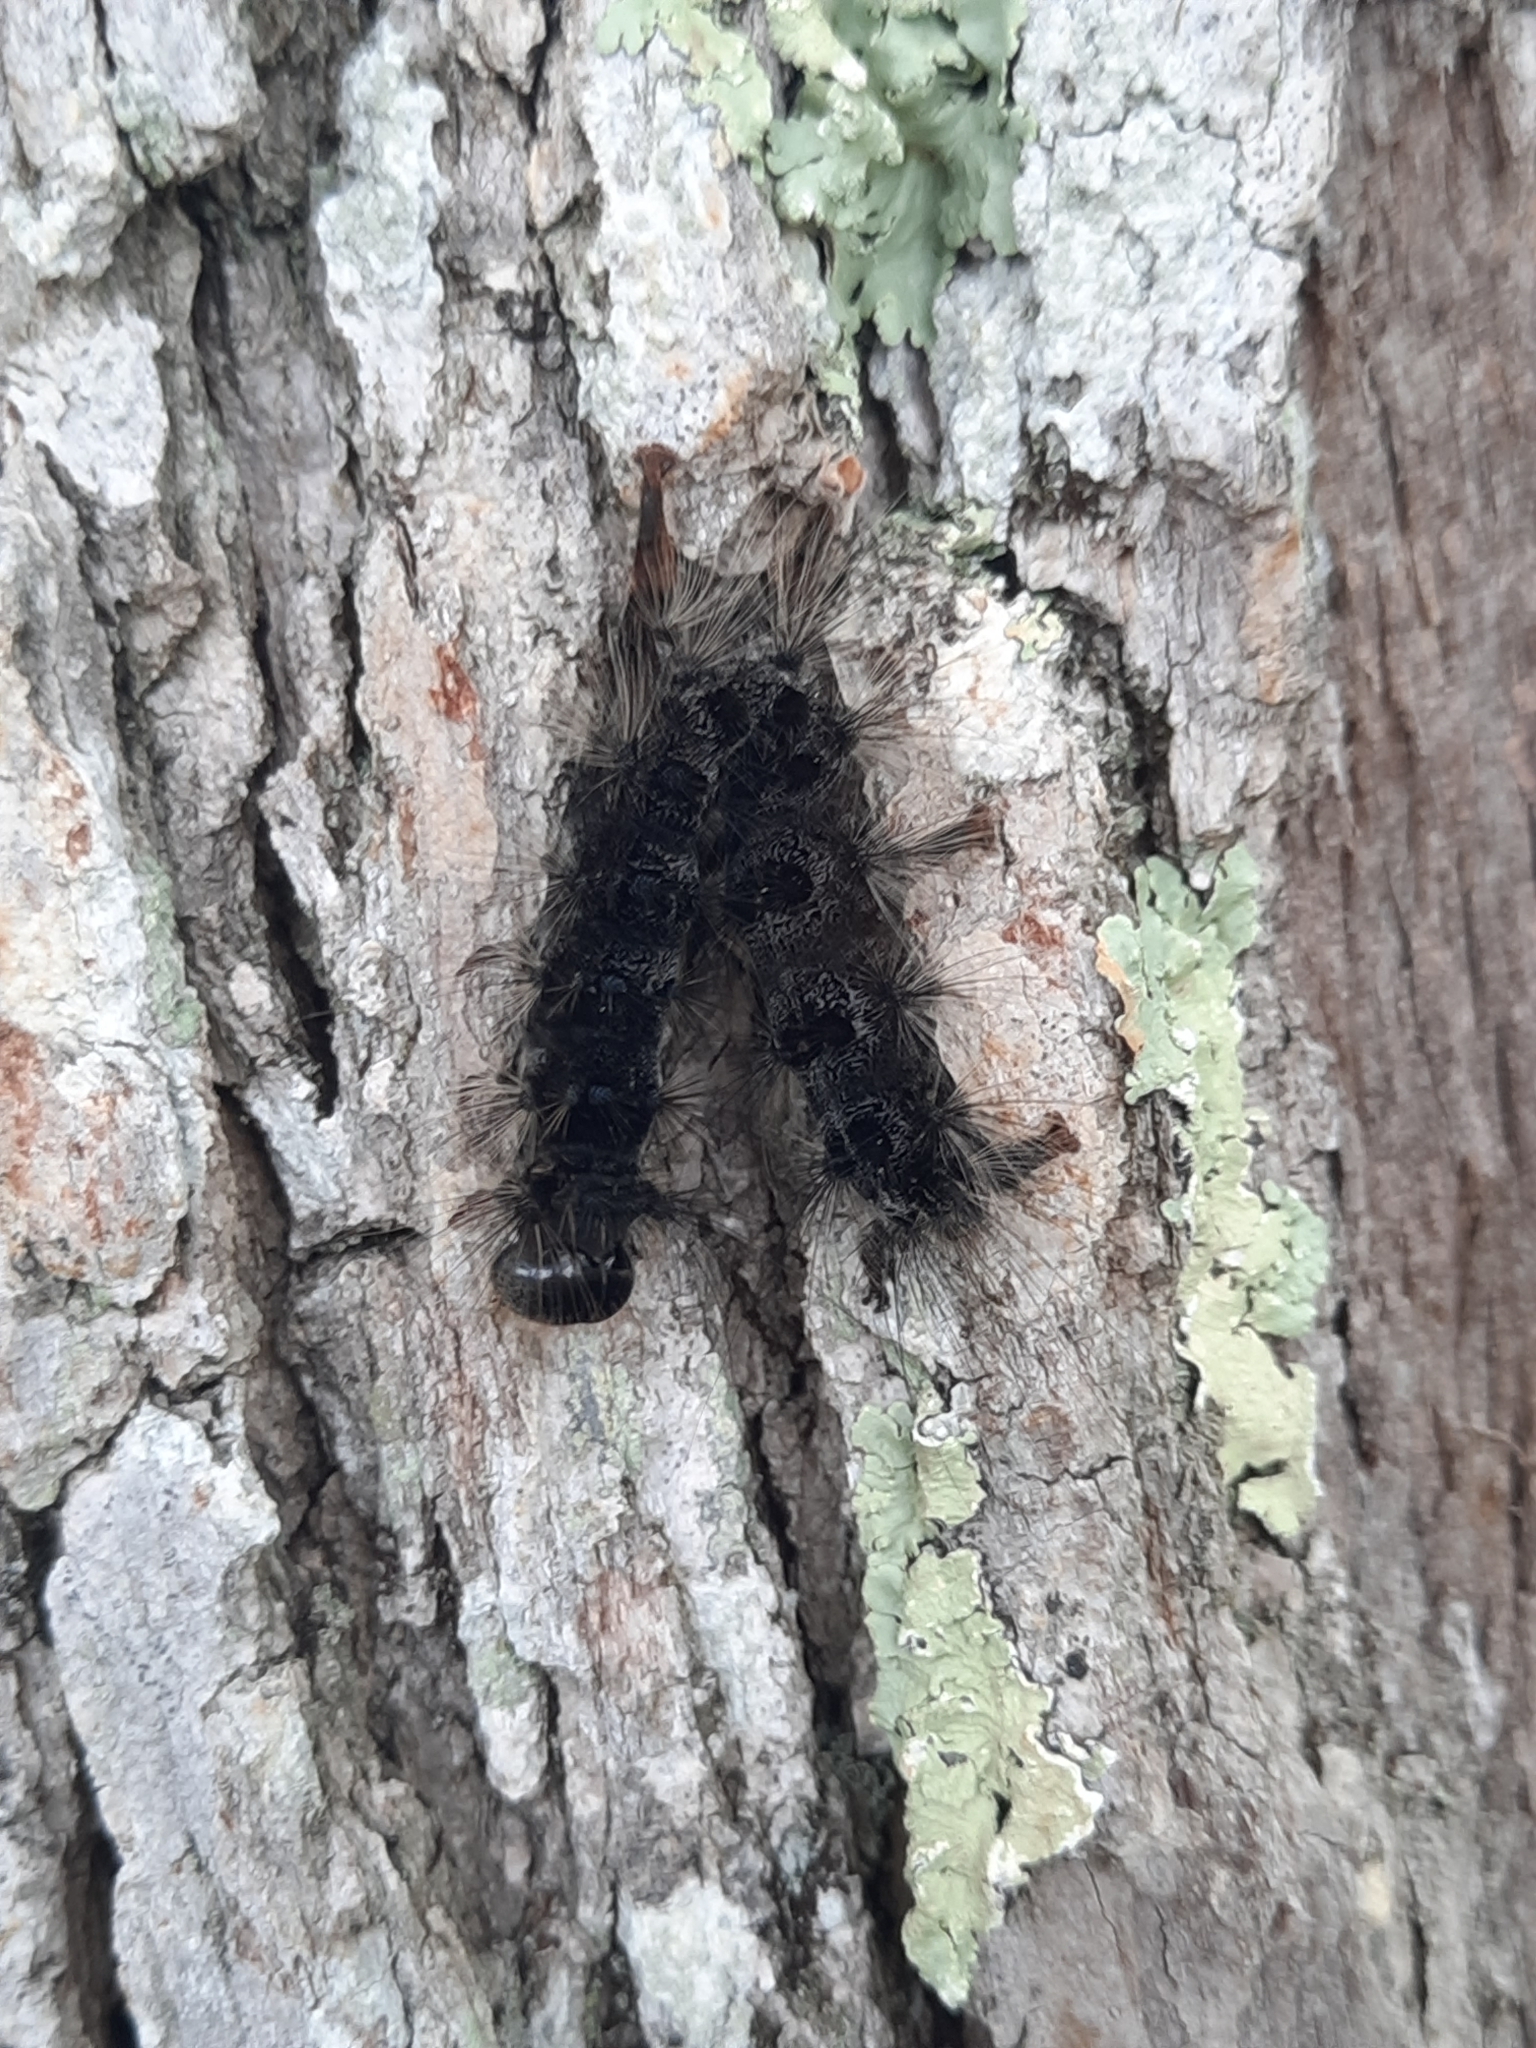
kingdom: Animalia
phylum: Arthropoda
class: Insecta
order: Lepidoptera
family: Erebidae
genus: Lymantria
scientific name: Lymantria dispar
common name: Gypsy moth
